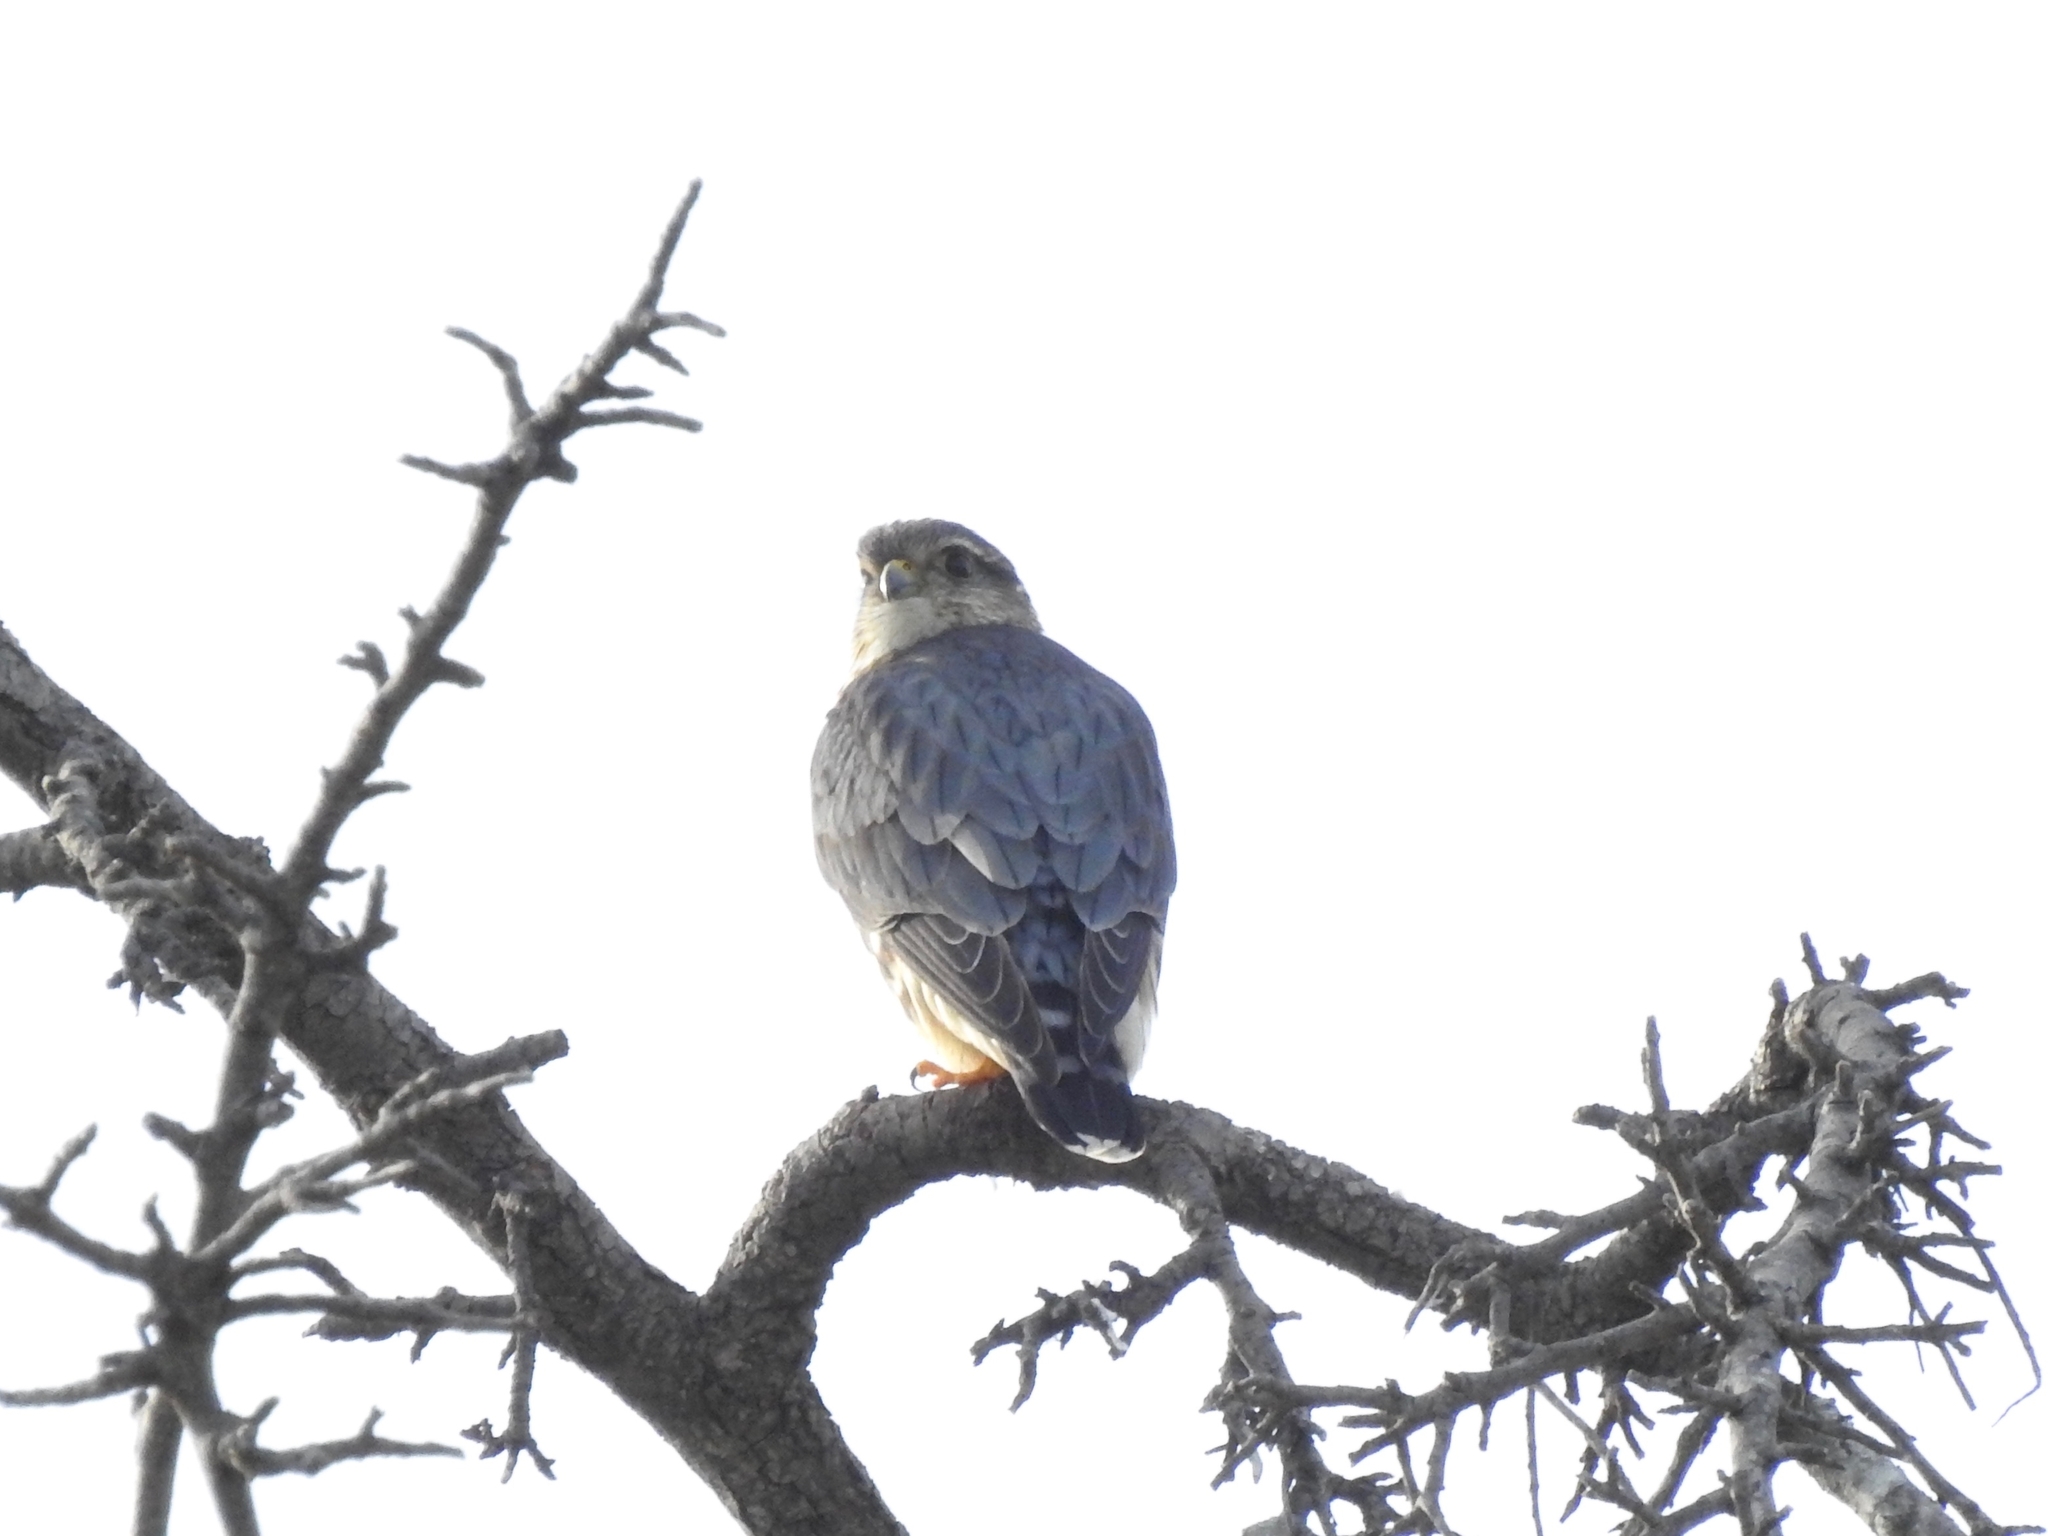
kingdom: Animalia
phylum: Chordata
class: Aves
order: Falconiformes
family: Falconidae
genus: Falco
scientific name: Falco columbarius
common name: Merlin
